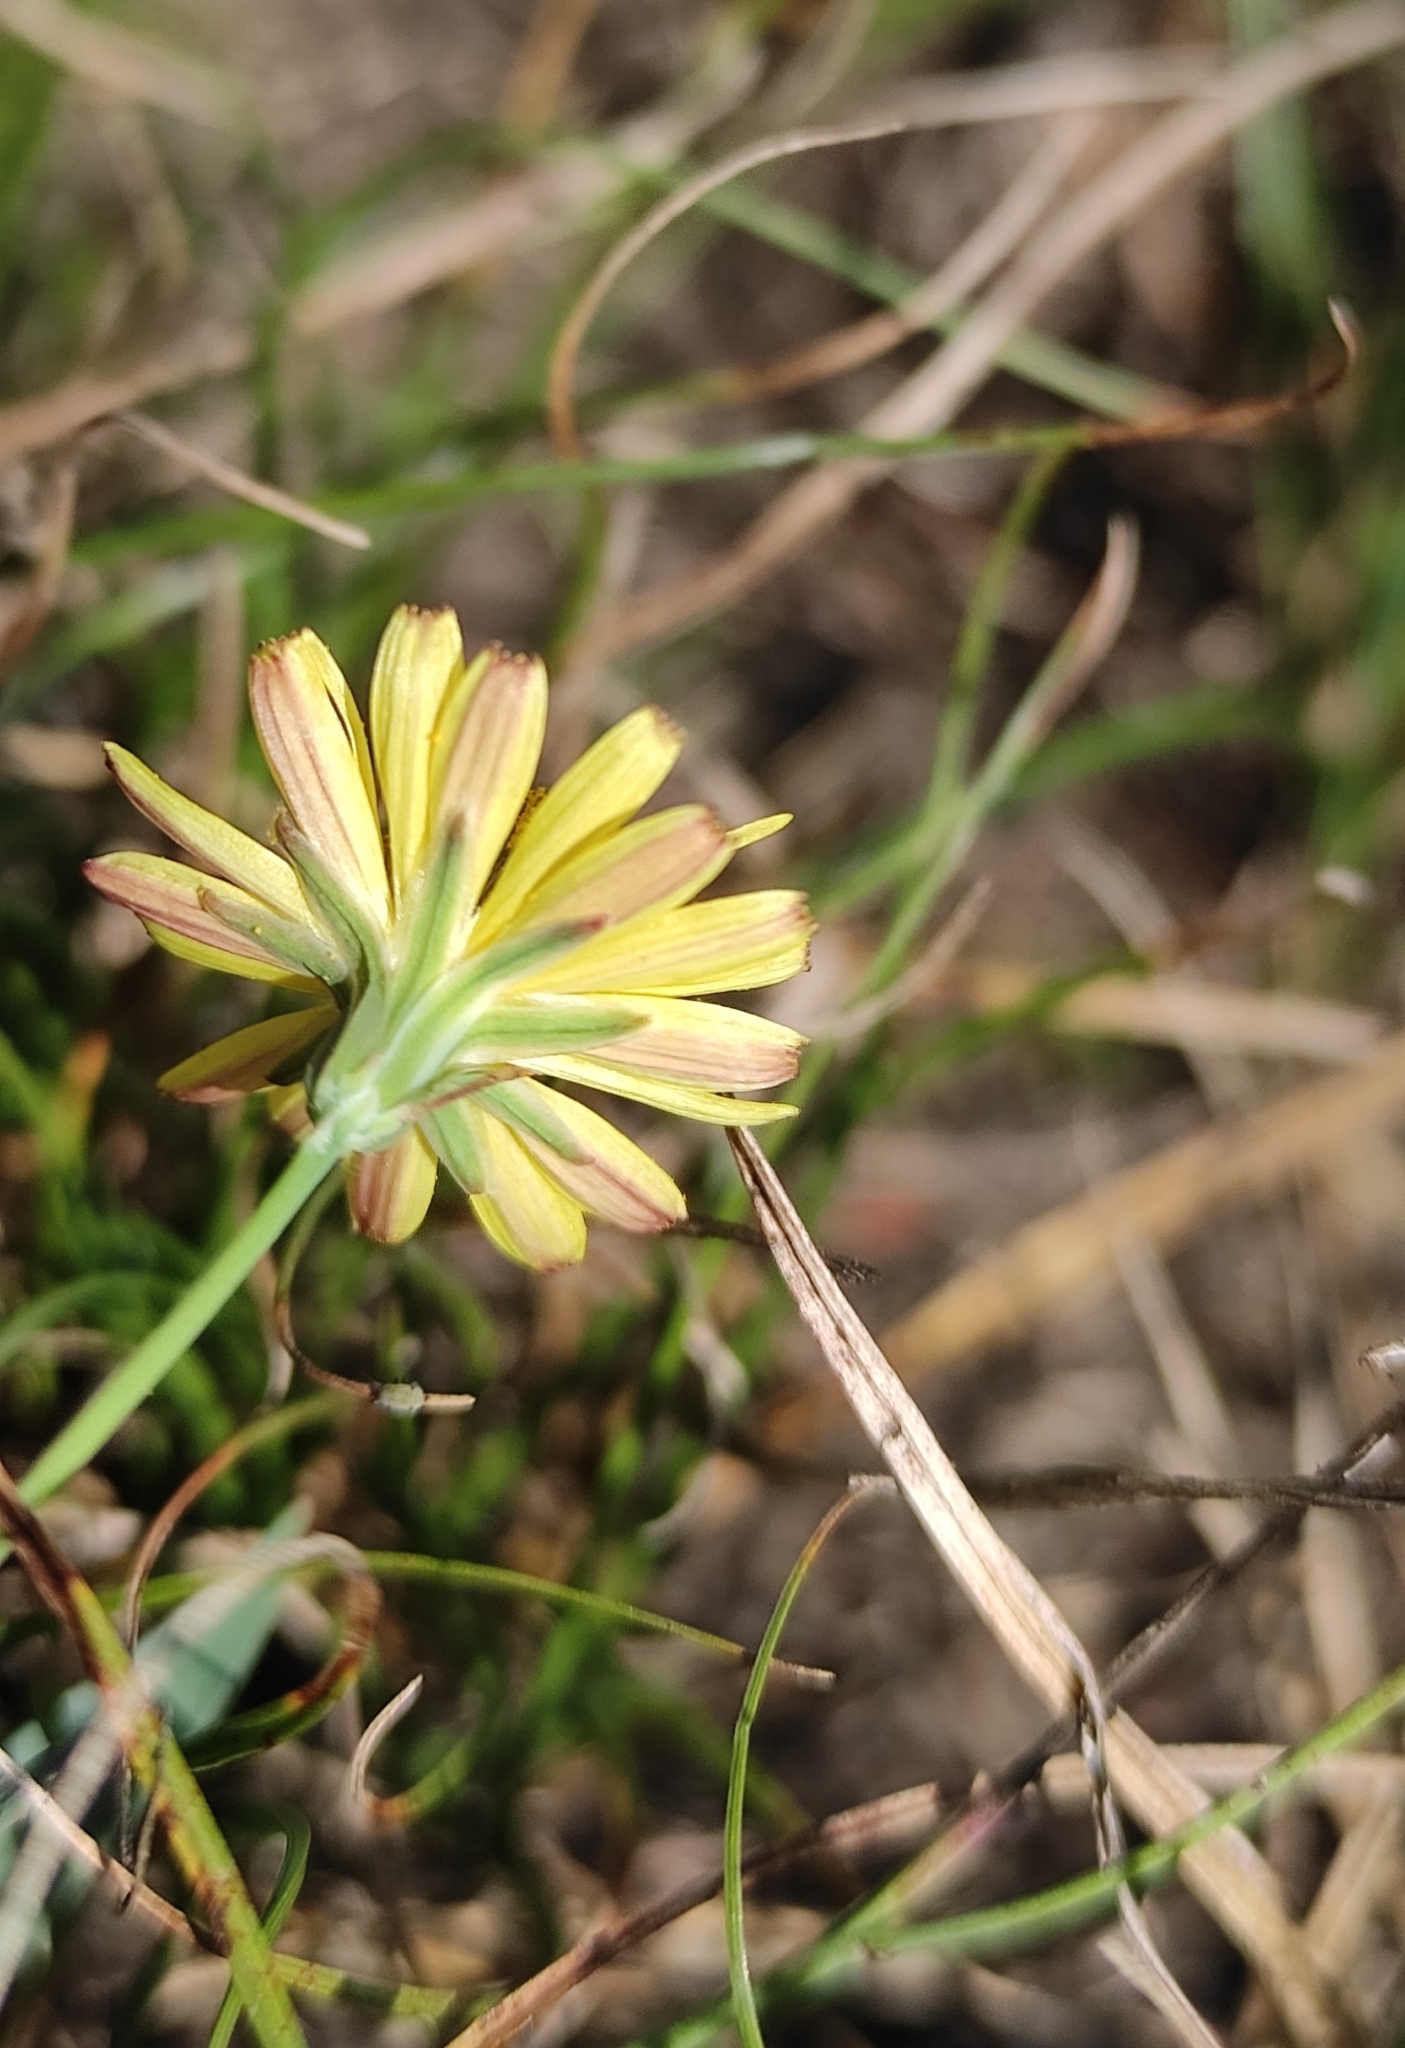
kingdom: Plantae
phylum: Tracheophyta
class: Magnoliopsida
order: Asterales
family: Asteraceae
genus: Ixeris
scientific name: Ixeris chinensis
